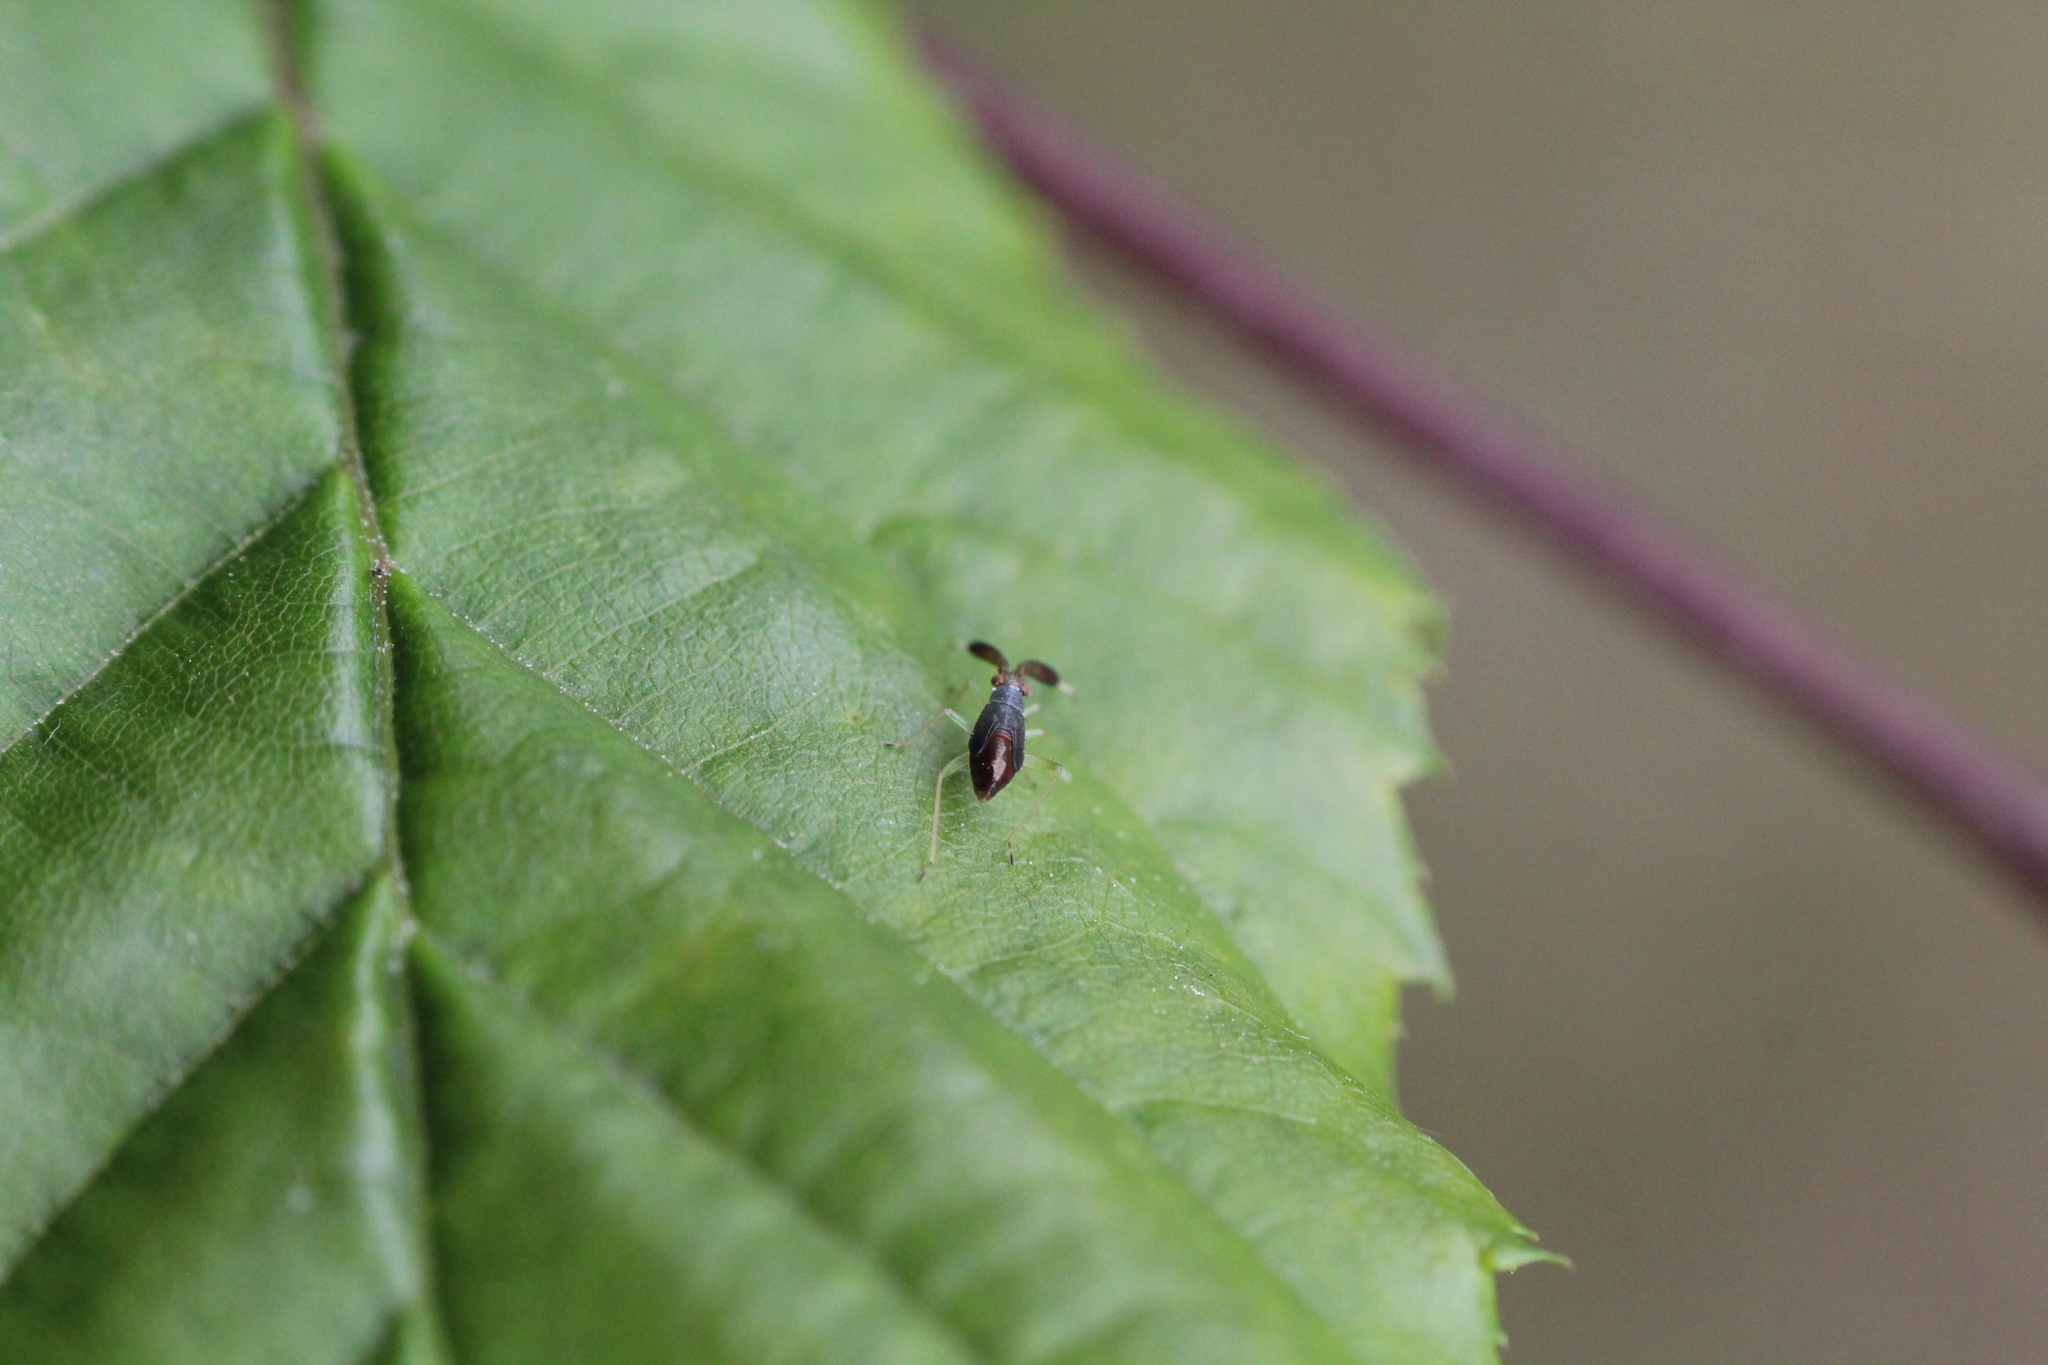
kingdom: Animalia
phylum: Arthropoda
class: Insecta
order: Hemiptera
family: Miridae
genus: Heterotoma
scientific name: Heterotoma planicornis
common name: Plant bug
